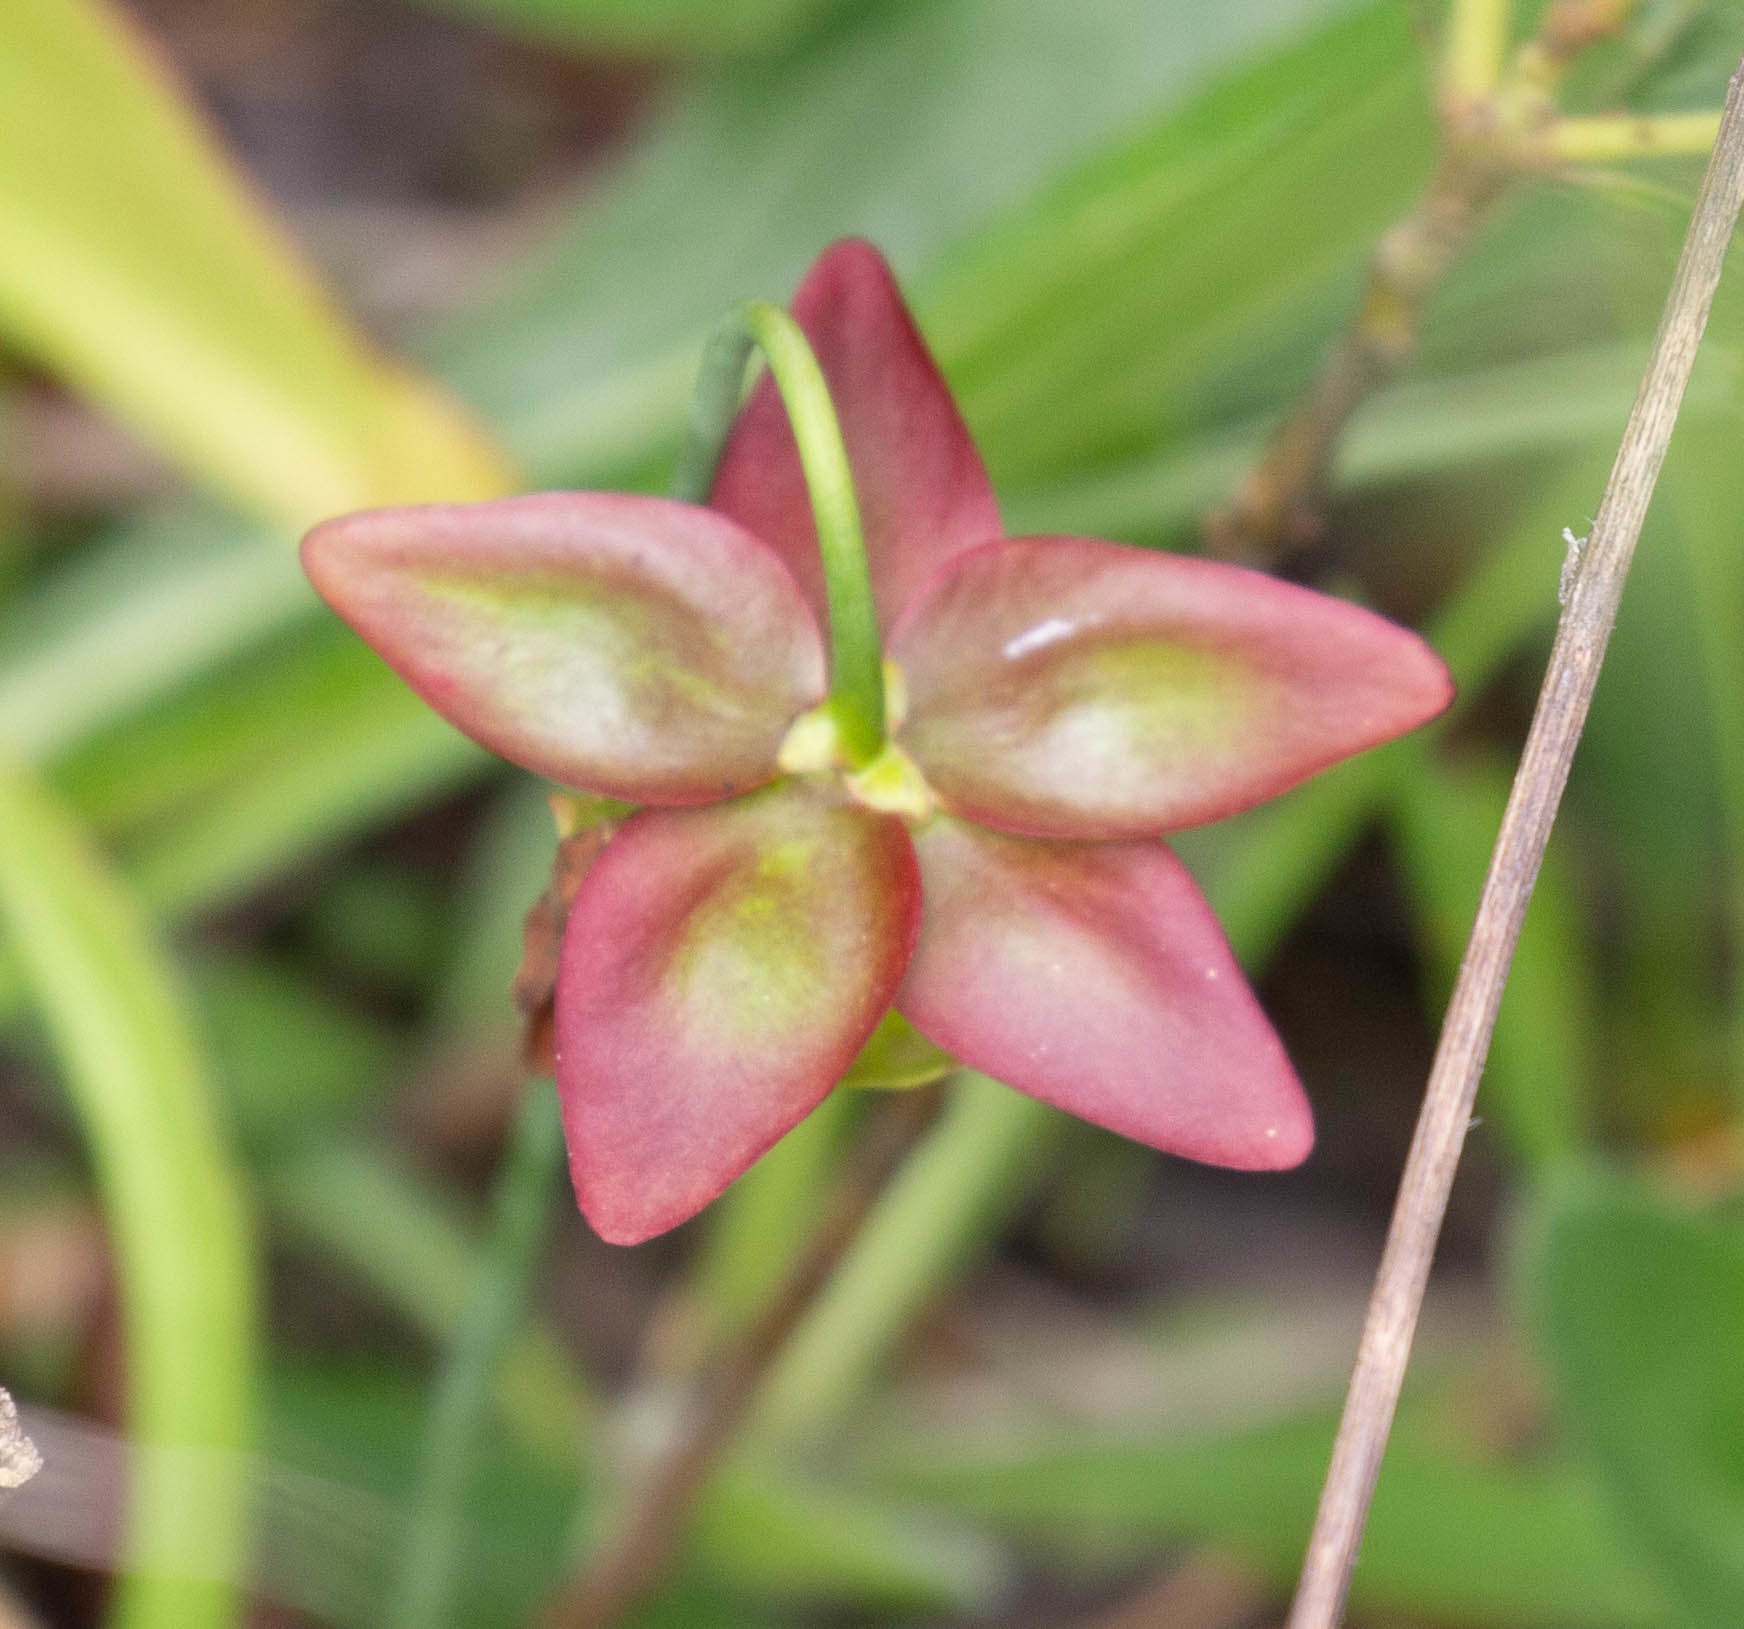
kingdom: Plantae
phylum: Tracheophyta
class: Magnoliopsida
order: Ericales
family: Sarraceniaceae
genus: Sarracenia
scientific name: Sarracenia psittacina
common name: Parrot pitcherplant
